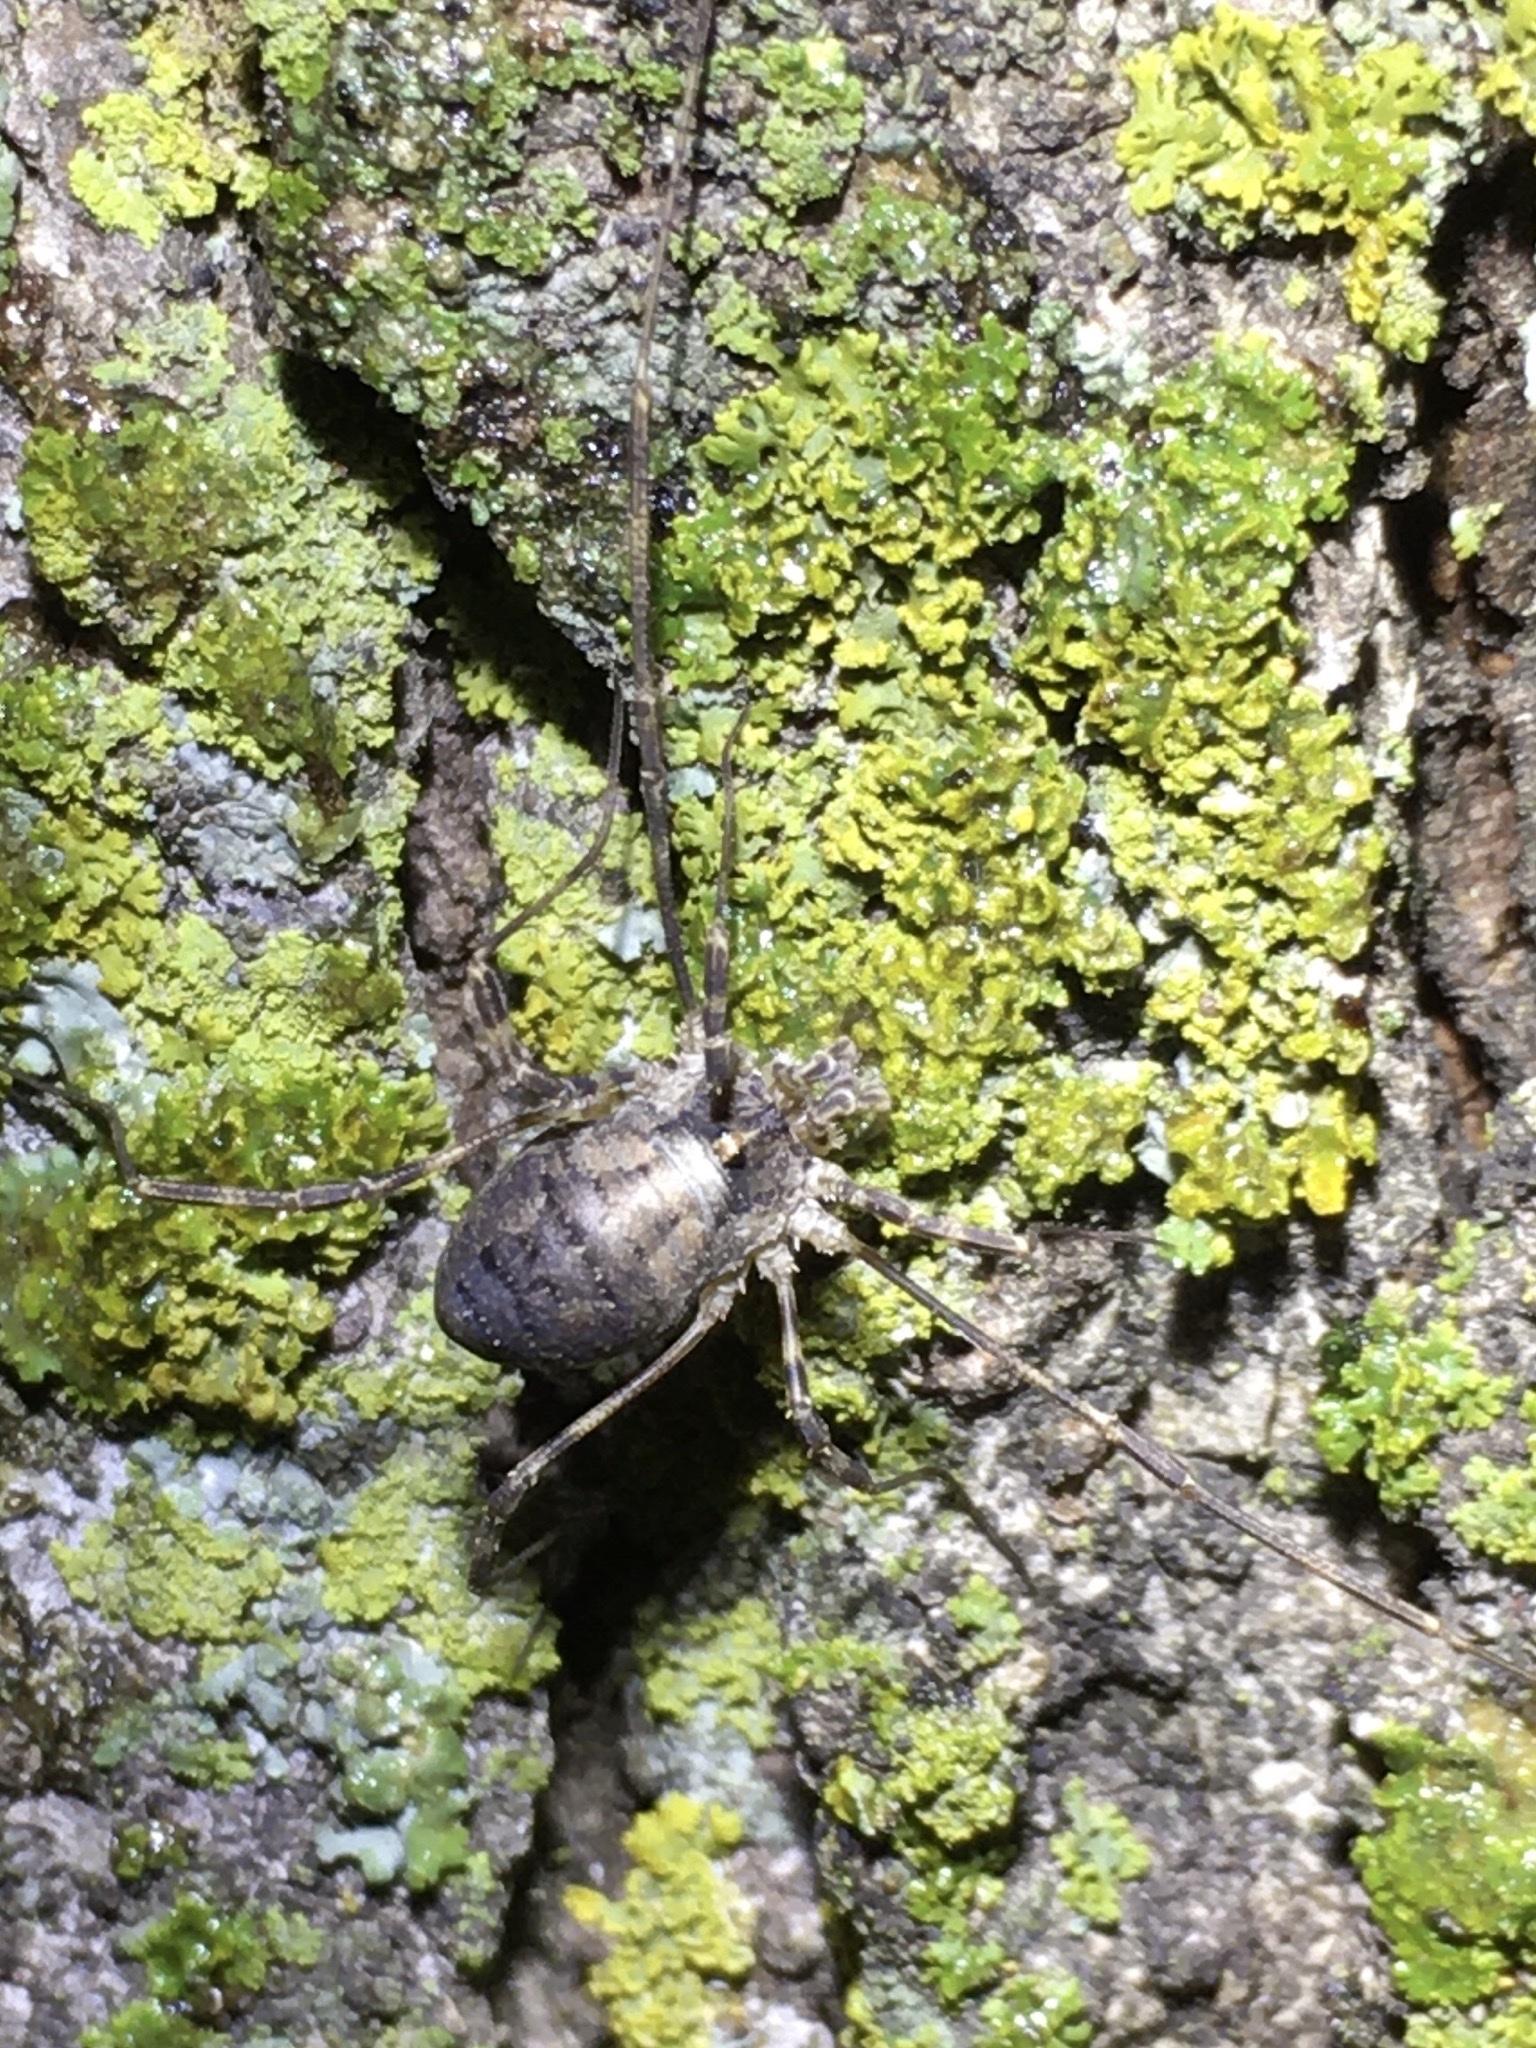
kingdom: Animalia
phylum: Arthropoda
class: Arachnida
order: Opiliones
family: Phalangiidae
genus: Odiellus
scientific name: Odiellus pictus
